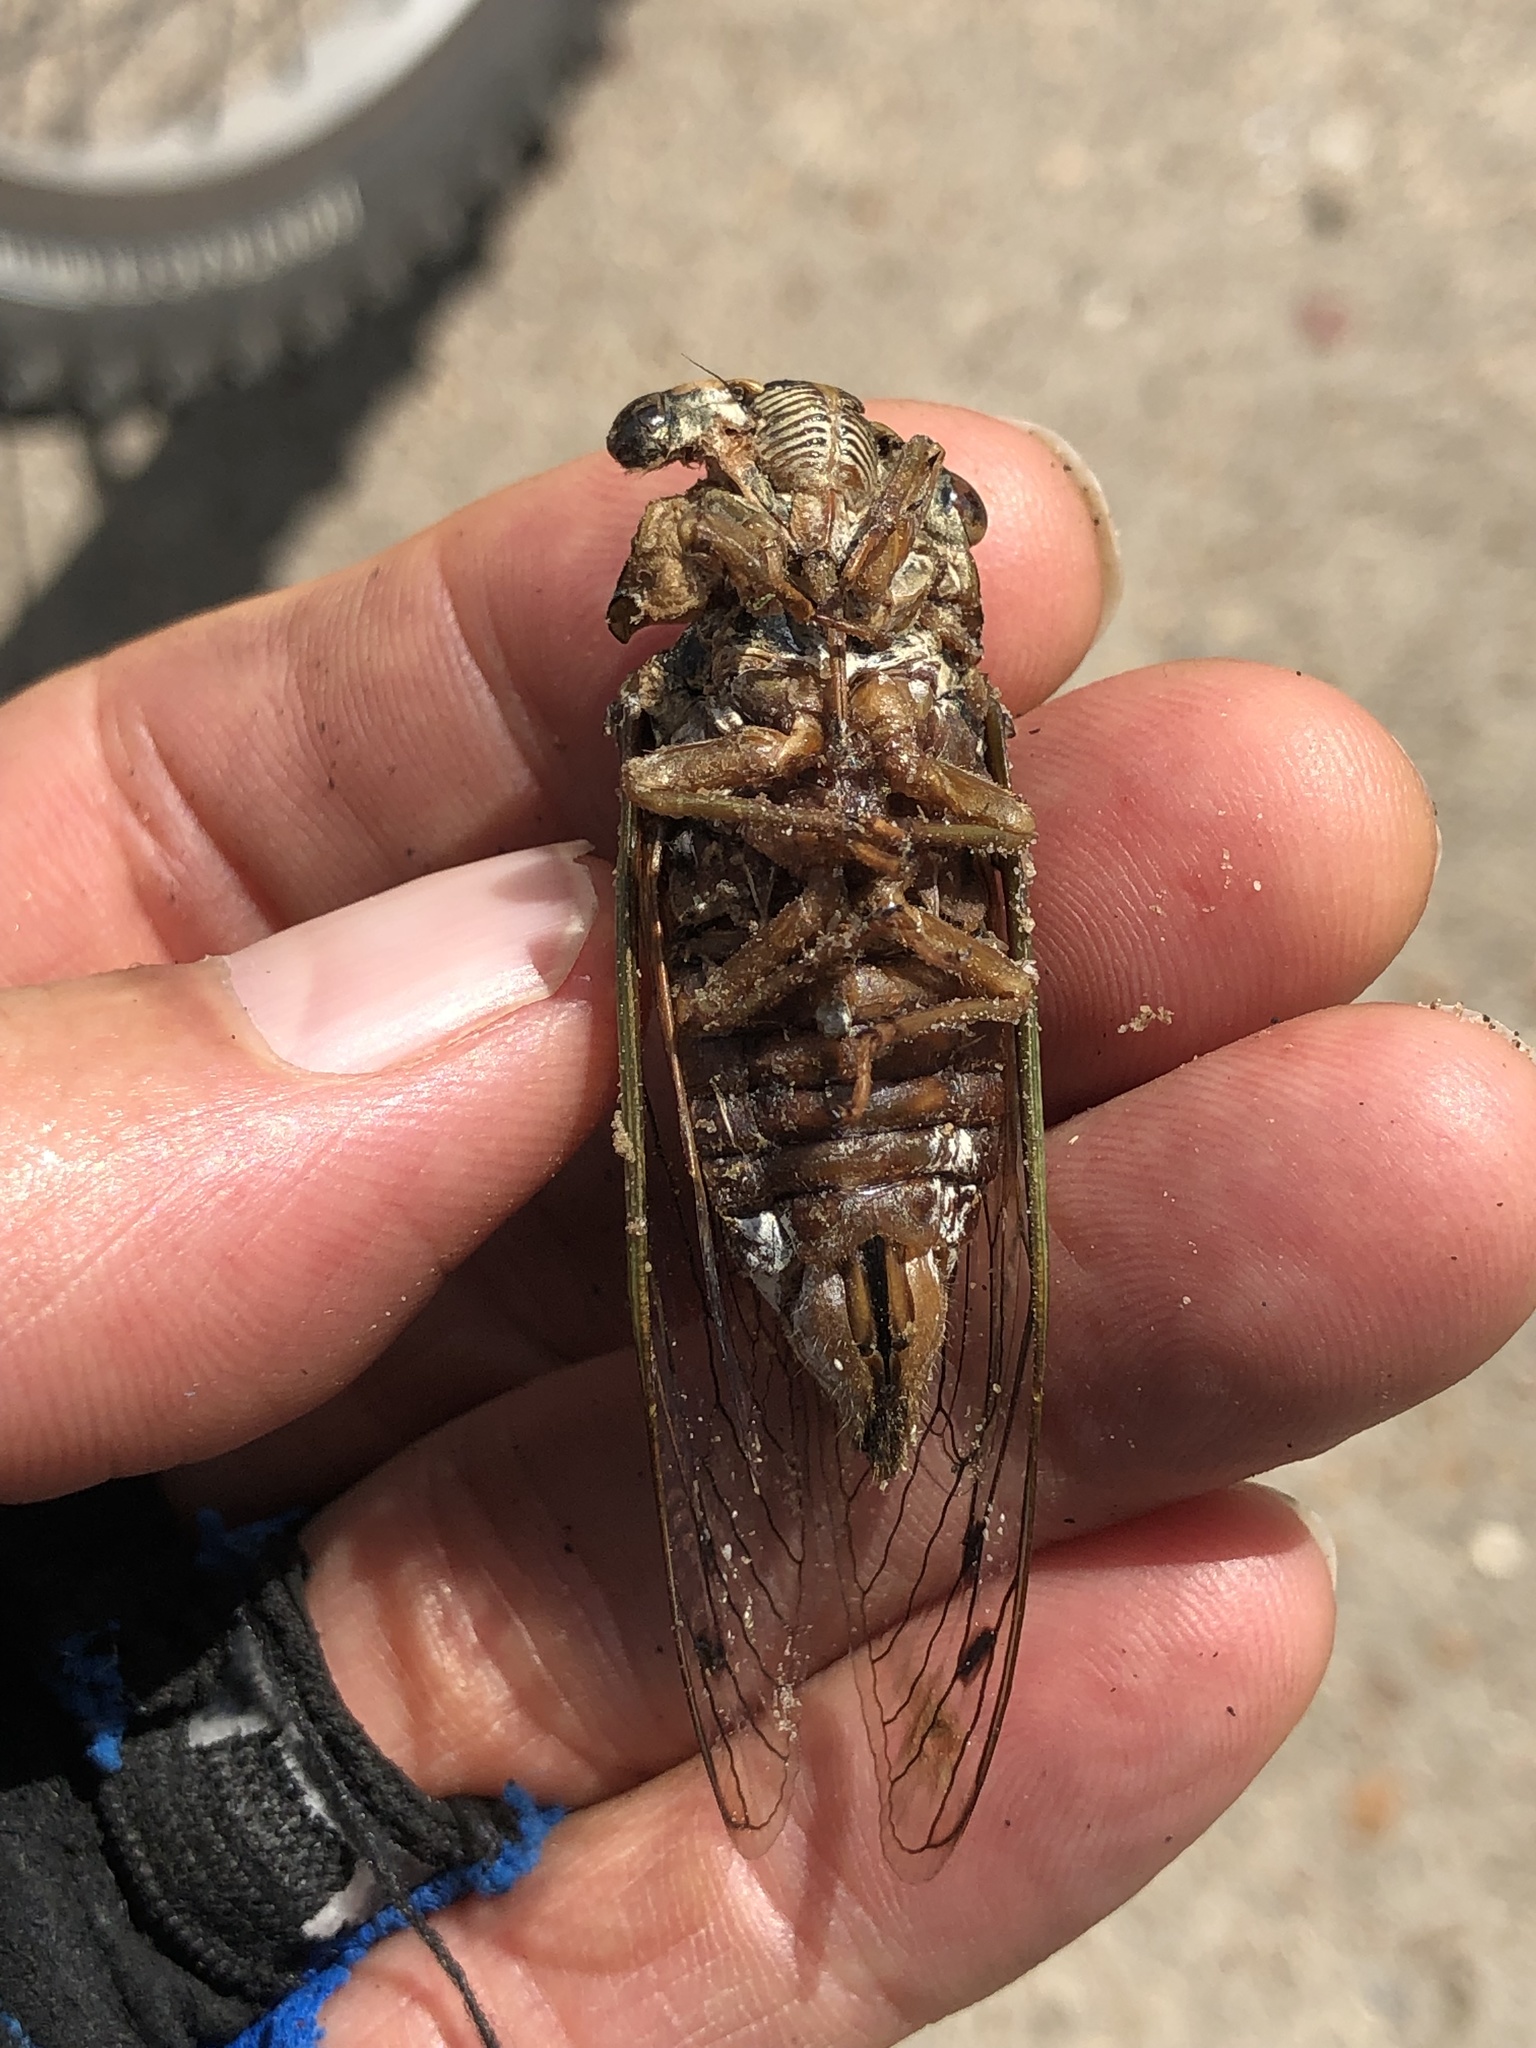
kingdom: Animalia
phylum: Arthropoda
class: Insecta
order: Hemiptera
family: Cicadidae
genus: Megatibicen
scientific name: Megatibicen resh
